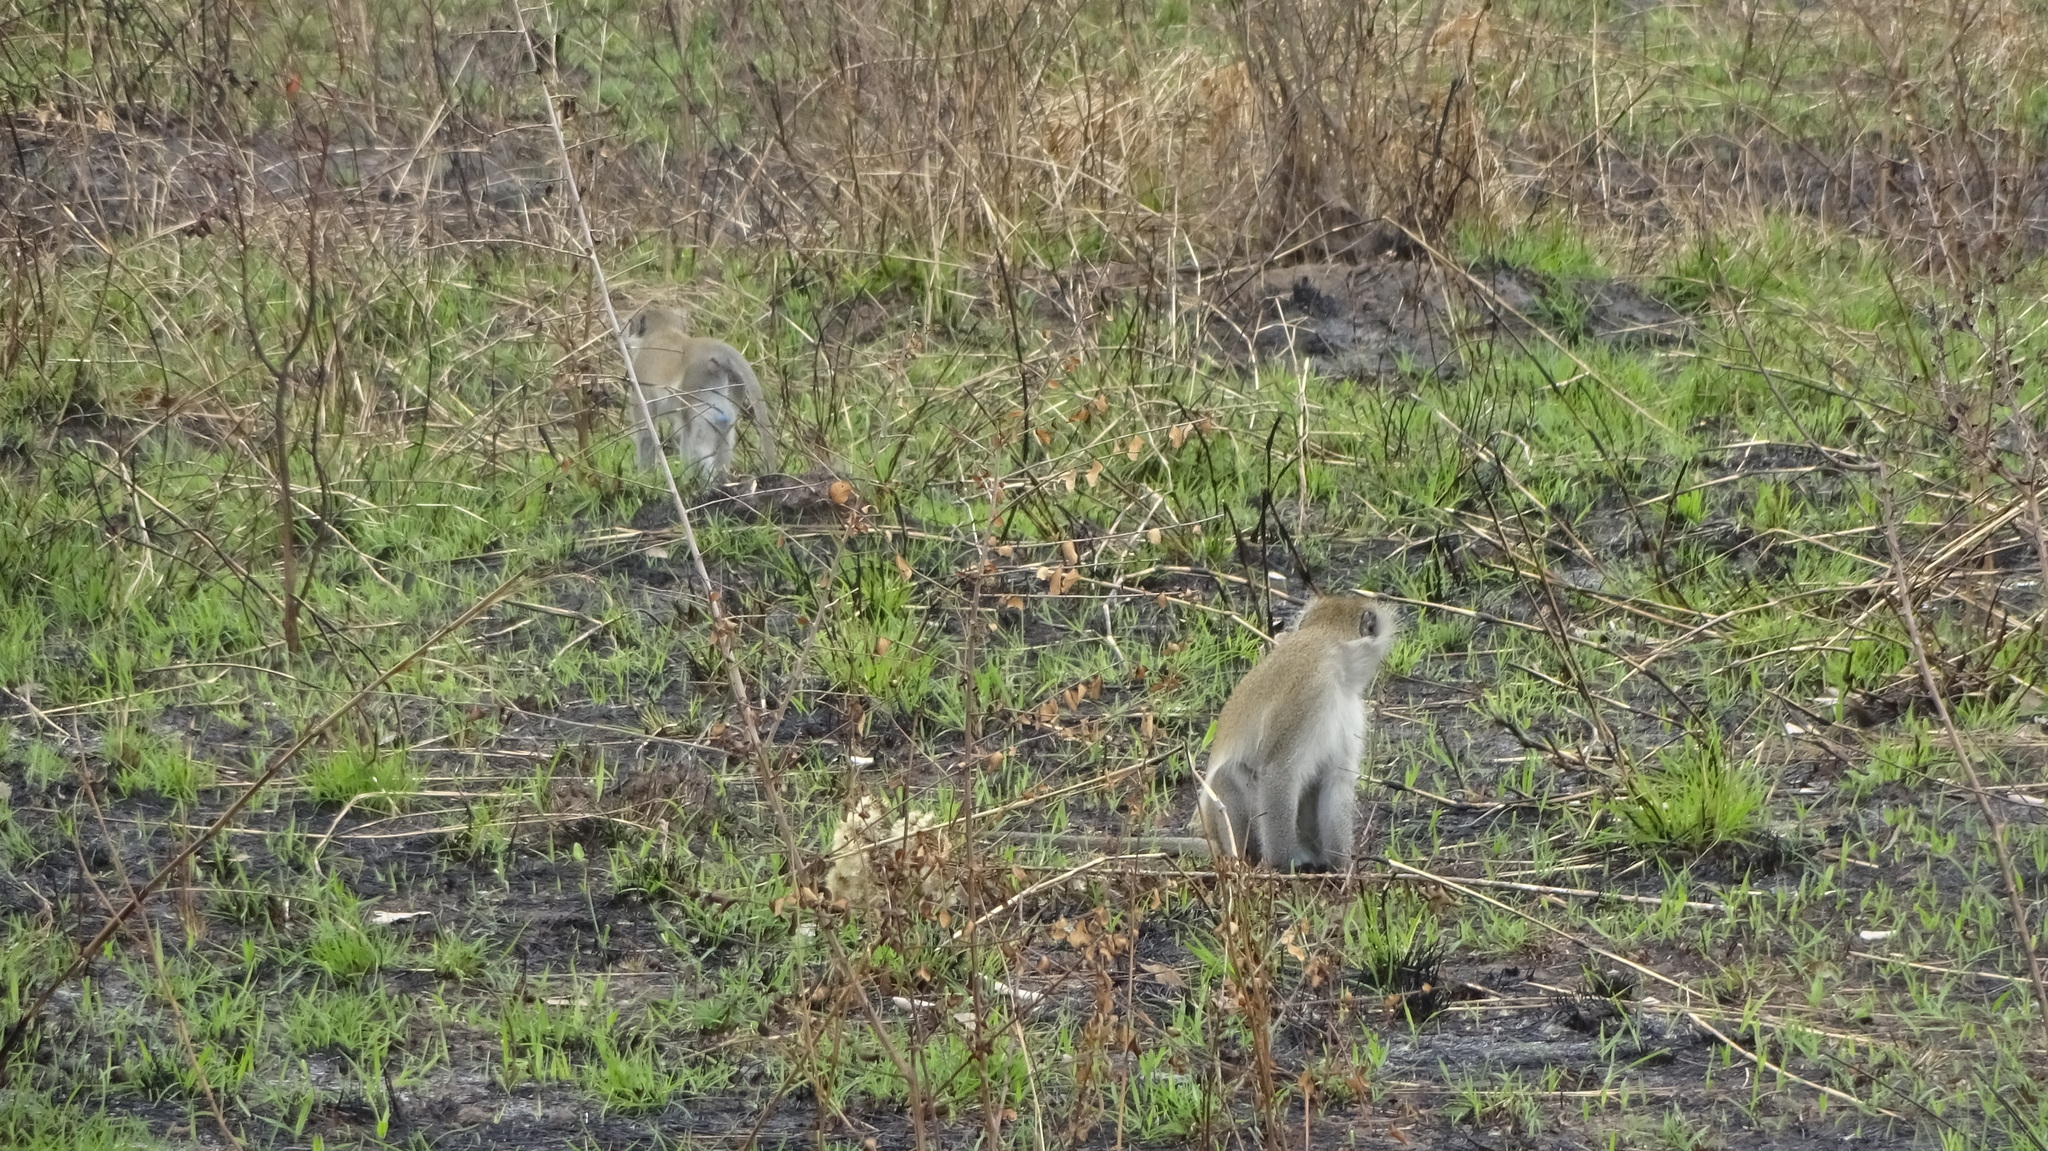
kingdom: Animalia
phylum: Chordata
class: Mammalia
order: Primates
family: Cercopithecidae
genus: Chlorocebus
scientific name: Chlorocebus pygerythrus
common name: Vervet monkey
